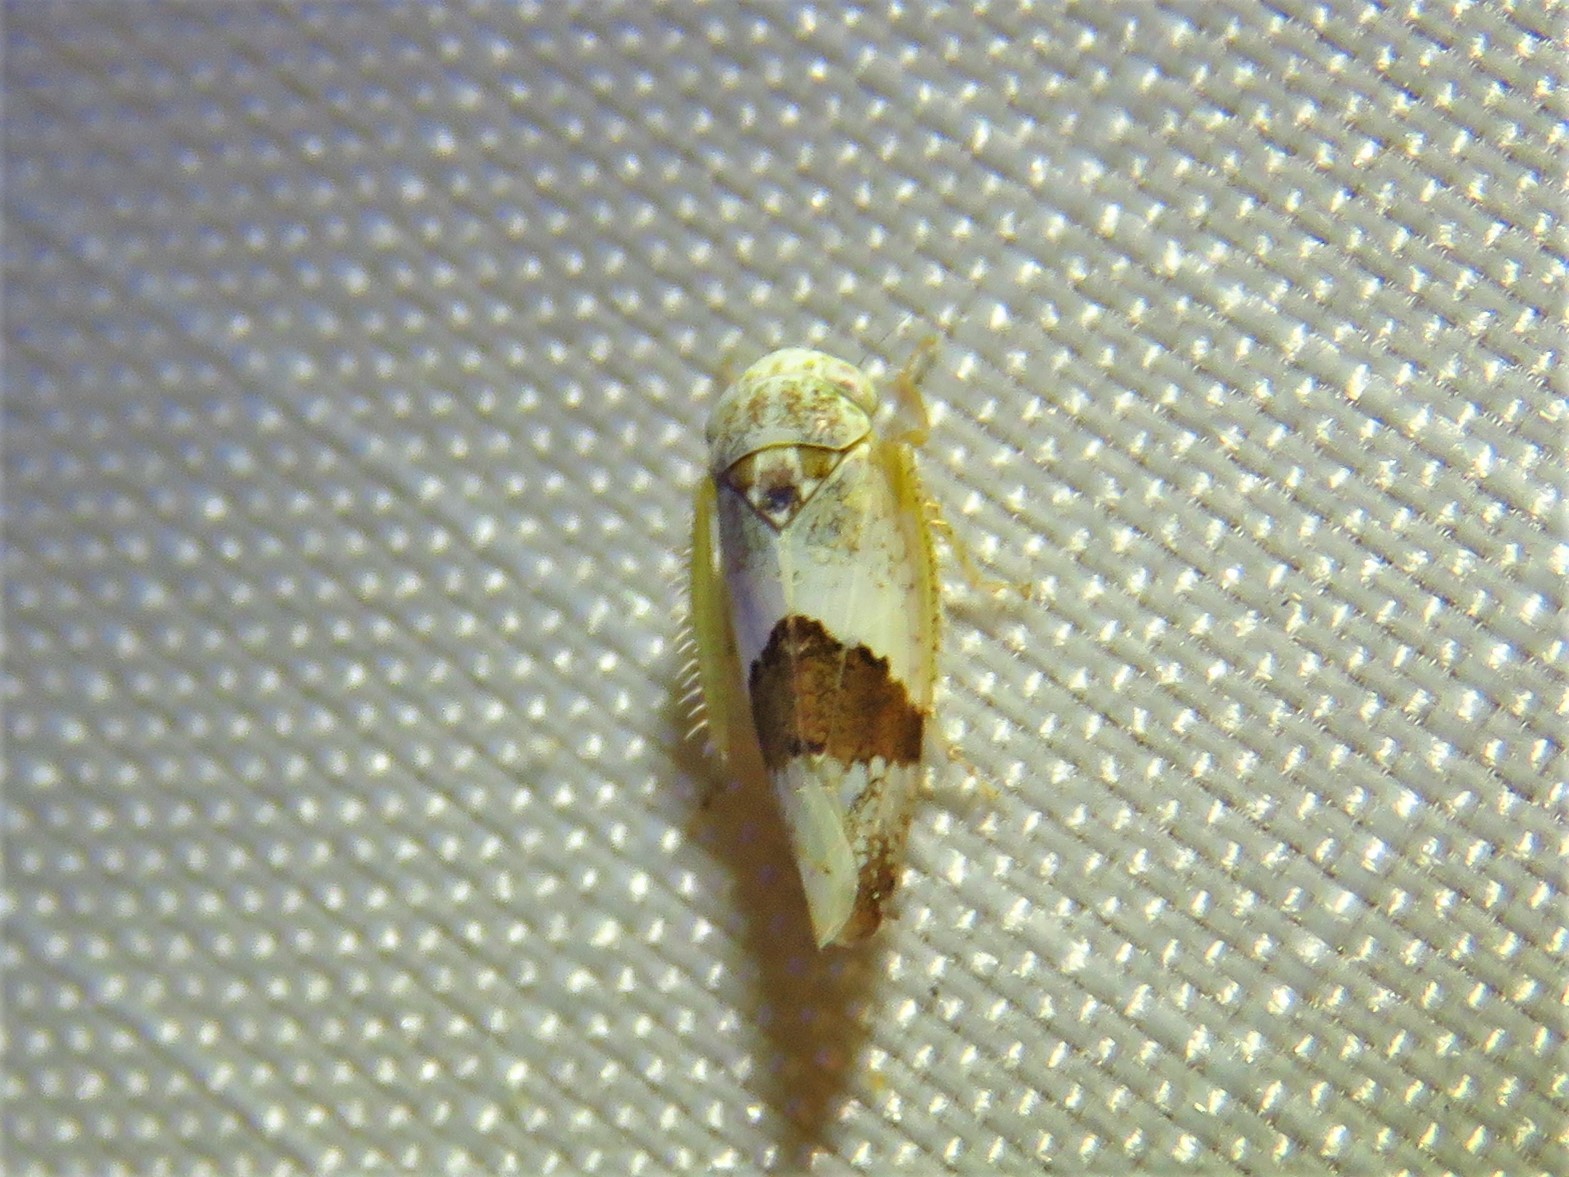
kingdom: Animalia
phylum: Arthropoda
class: Insecta
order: Hemiptera
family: Cicadellidae
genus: Norvellina
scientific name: Norvellina seminuda
